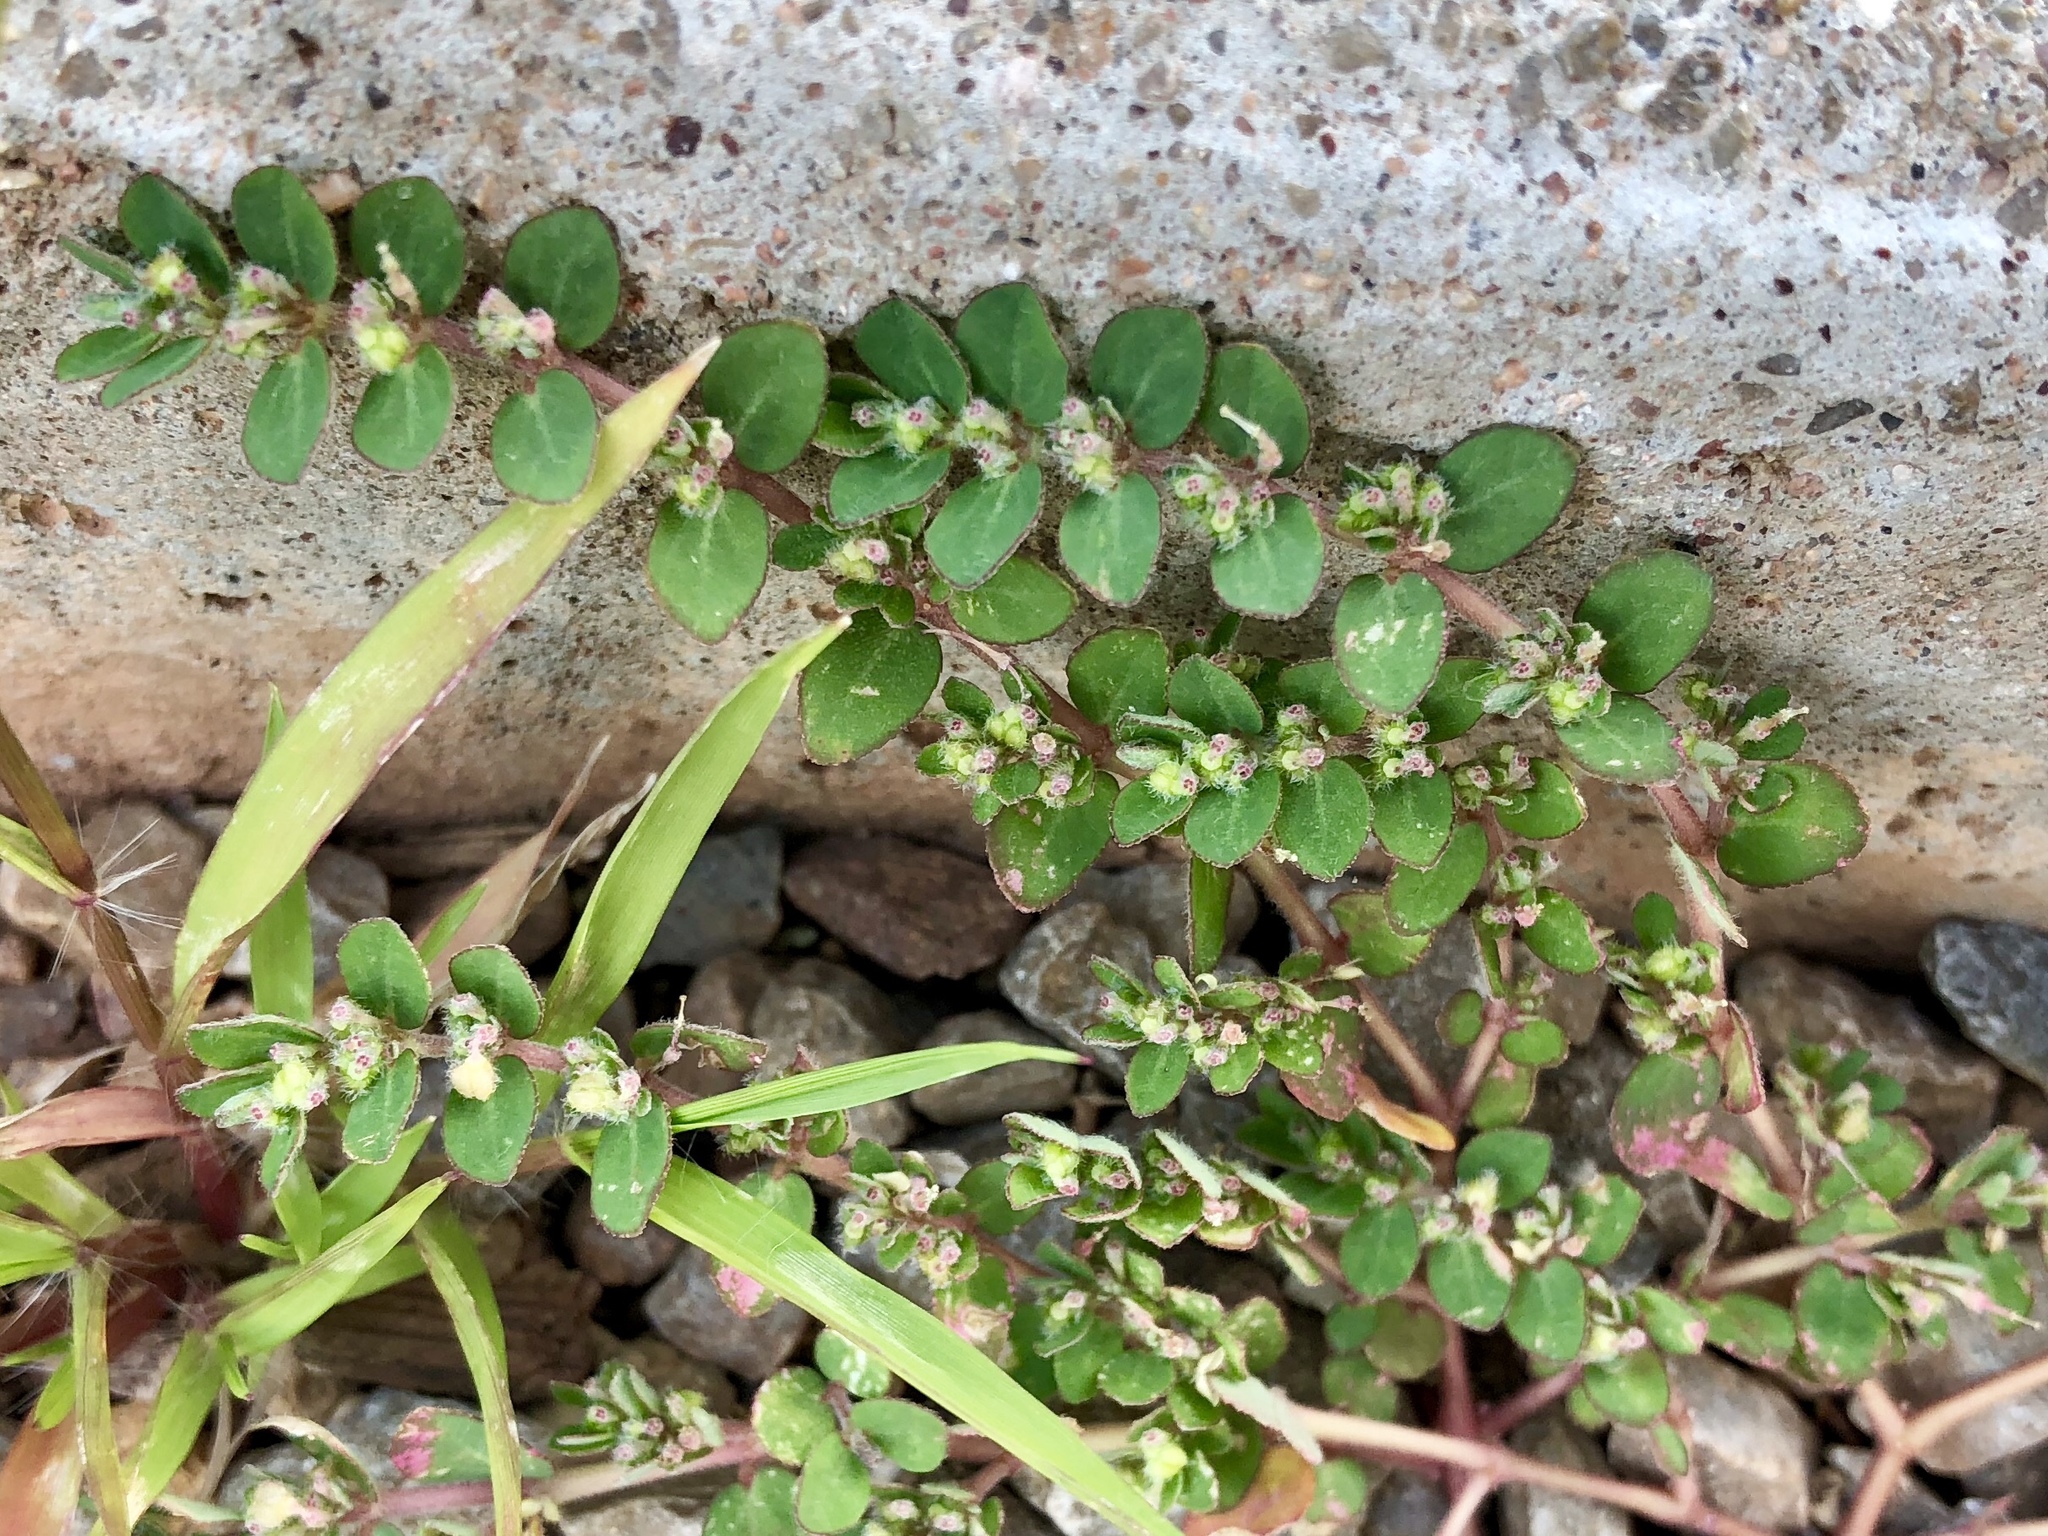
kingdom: Plantae
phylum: Tracheophyta
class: Magnoliopsida
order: Malpighiales
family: Euphorbiaceae
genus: Euphorbia
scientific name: Euphorbia prostrata
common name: Prostrate sandmat
